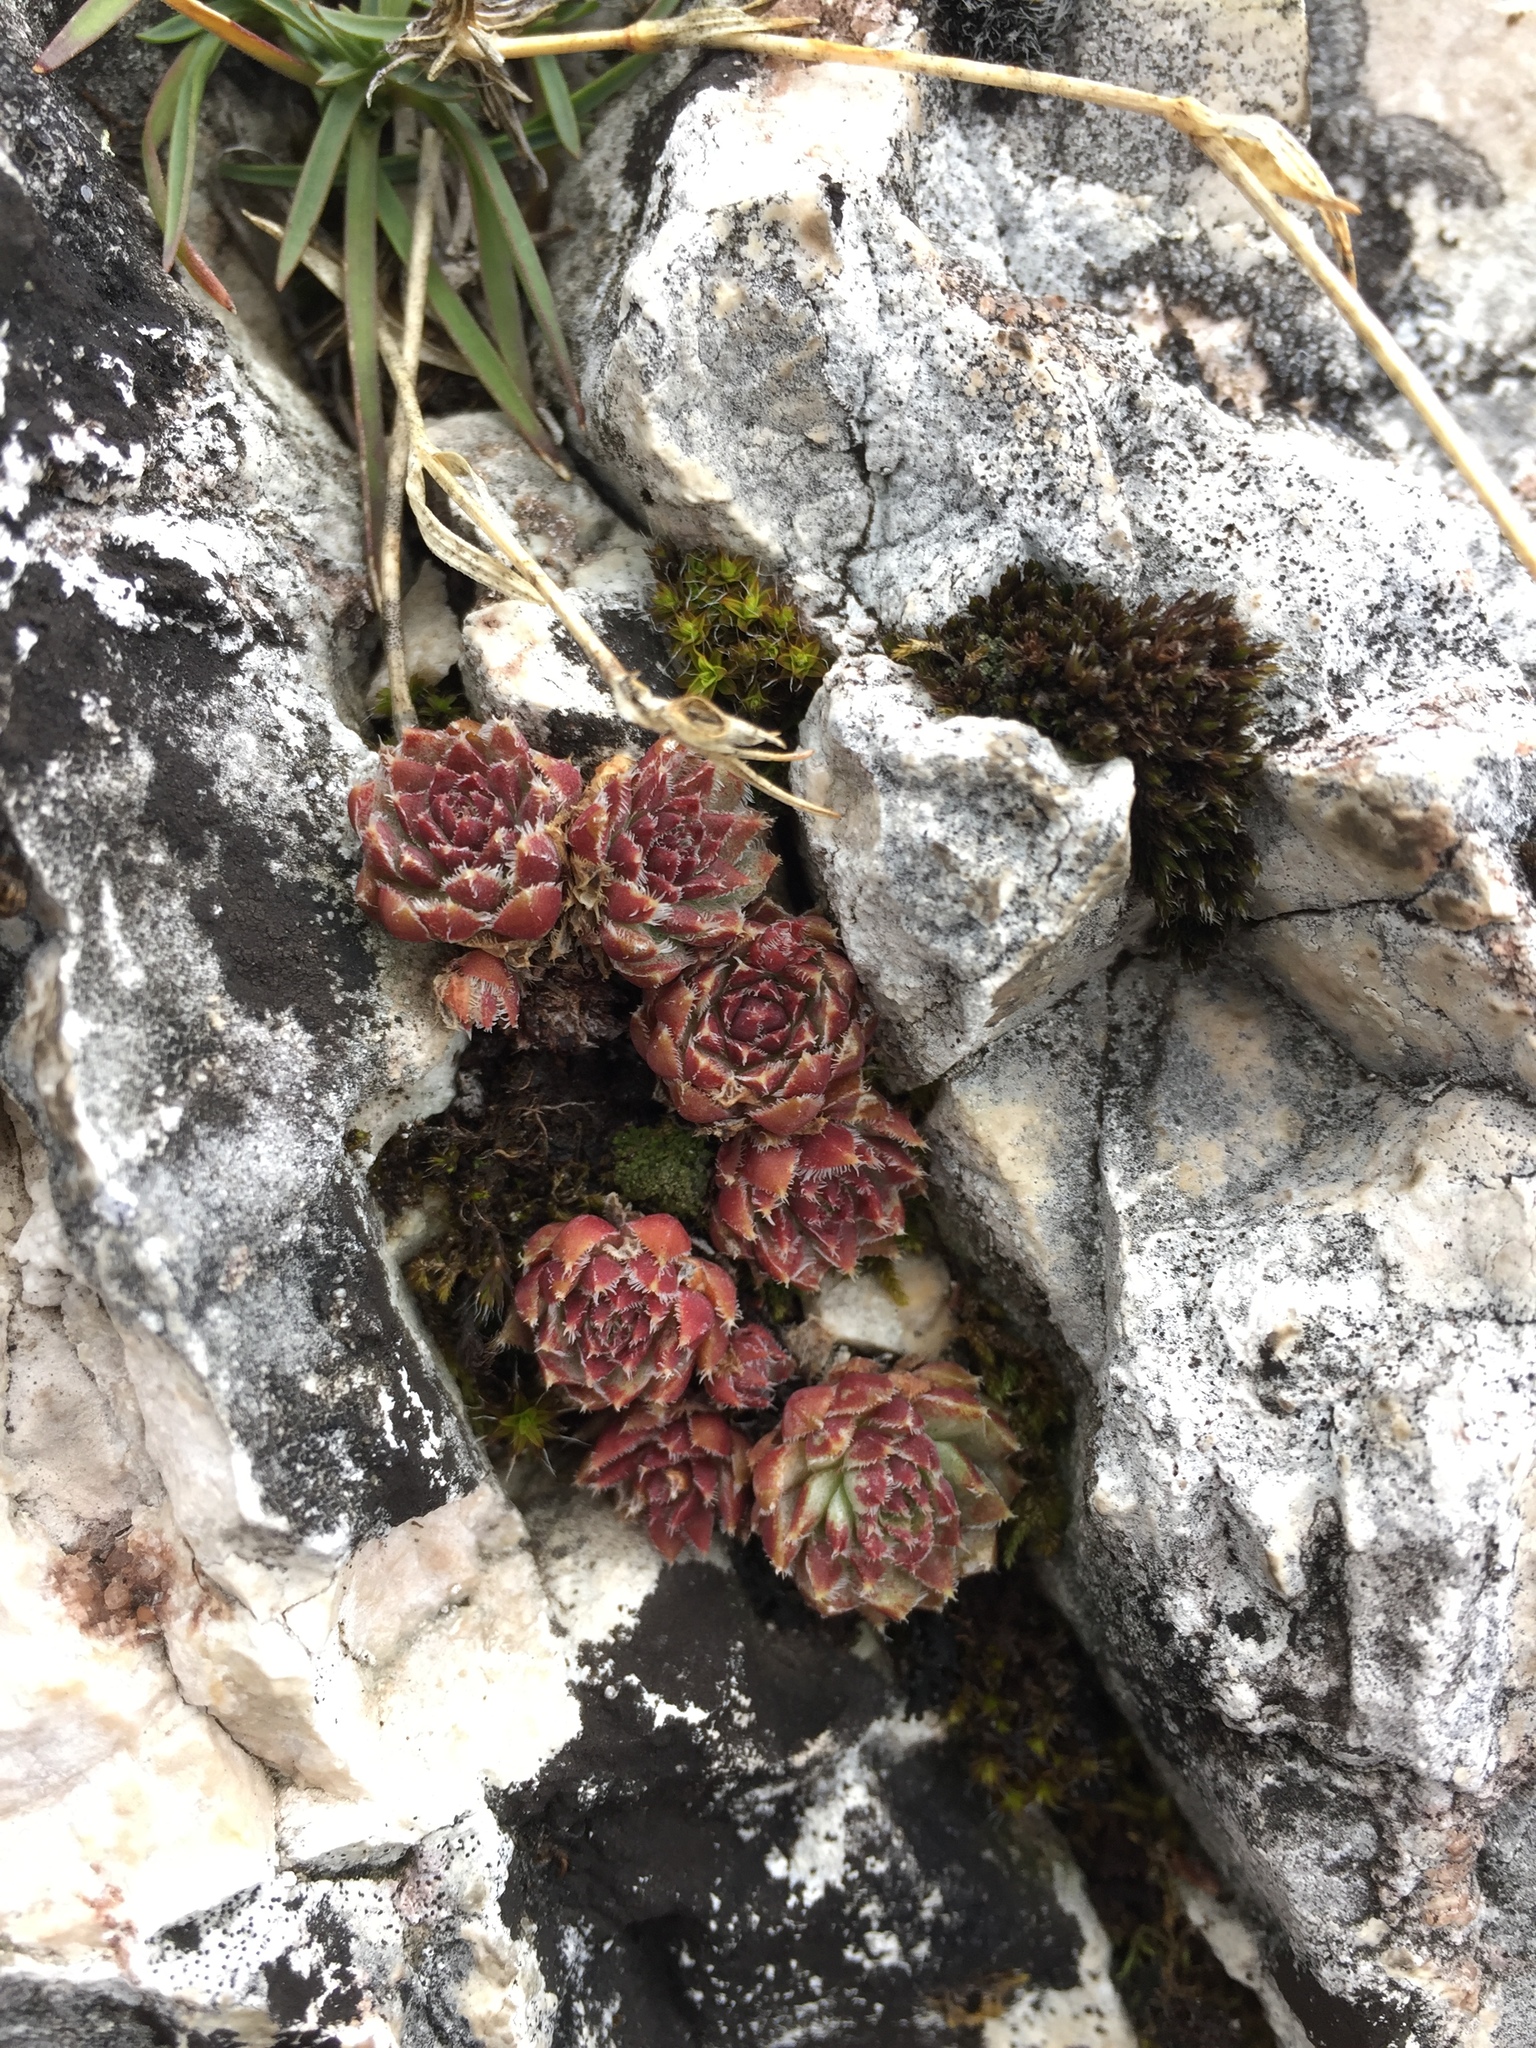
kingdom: Plantae
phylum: Tracheophyta
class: Magnoliopsida
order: Saxifragales
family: Crassulaceae
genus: Sempervivum
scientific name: Sempervivum globiferum
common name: Rolling hen-and-chicks
